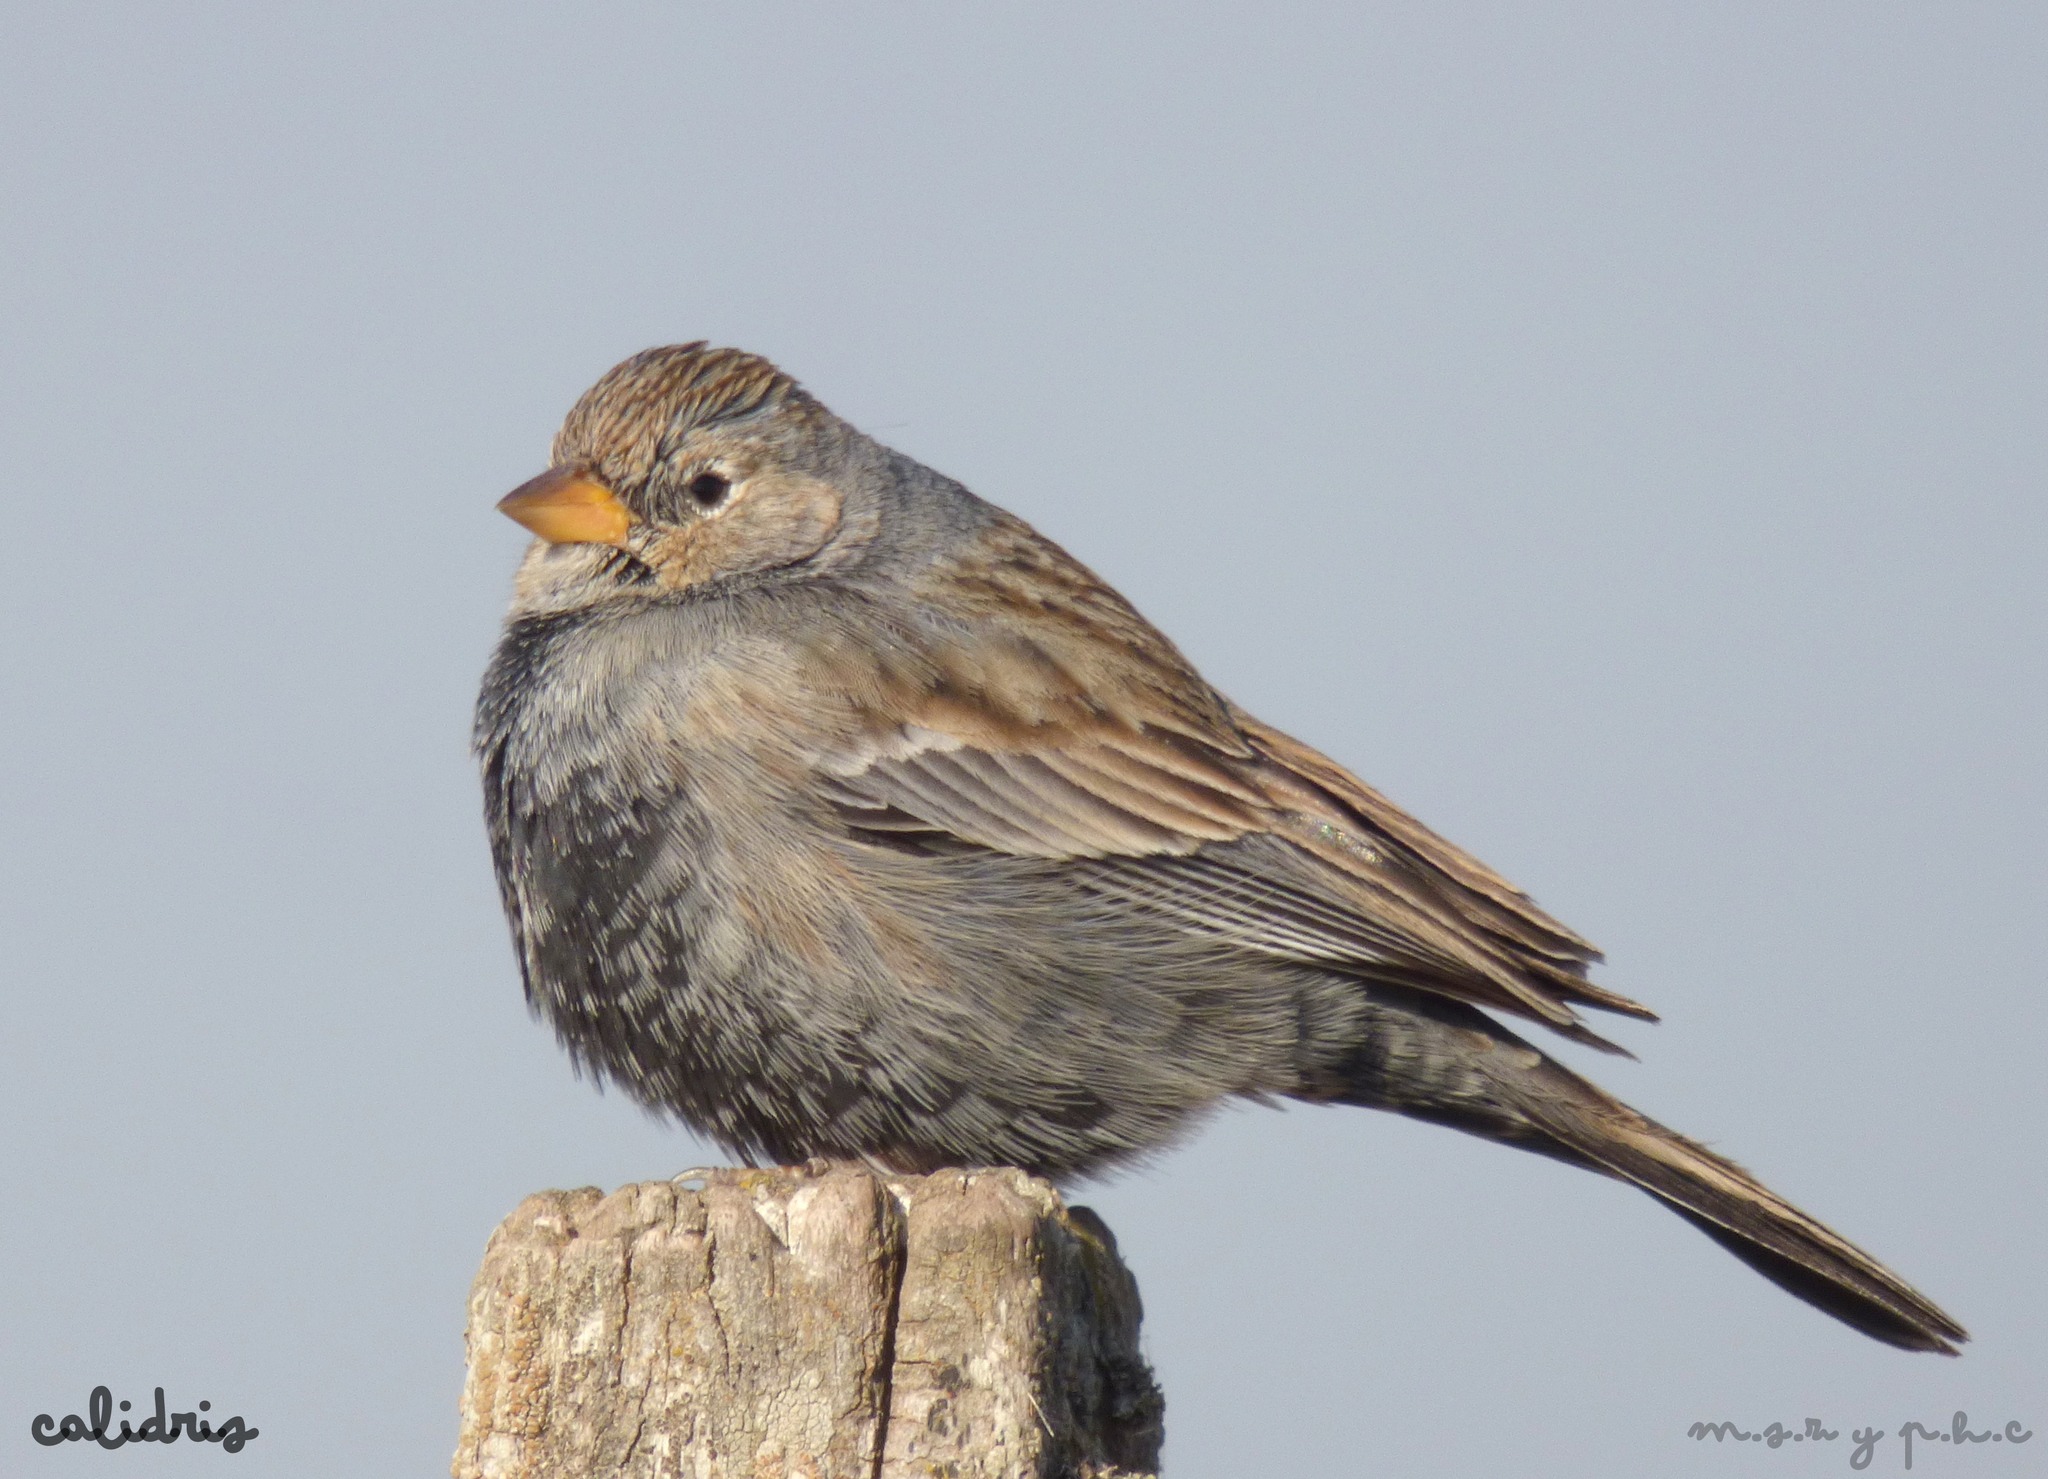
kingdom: Animalia
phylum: Chordata
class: Aves
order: Passeriformes
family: Thraupidae
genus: Porphyrospiza
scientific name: Porphyrospiza carbonaria
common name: Carbon finch
